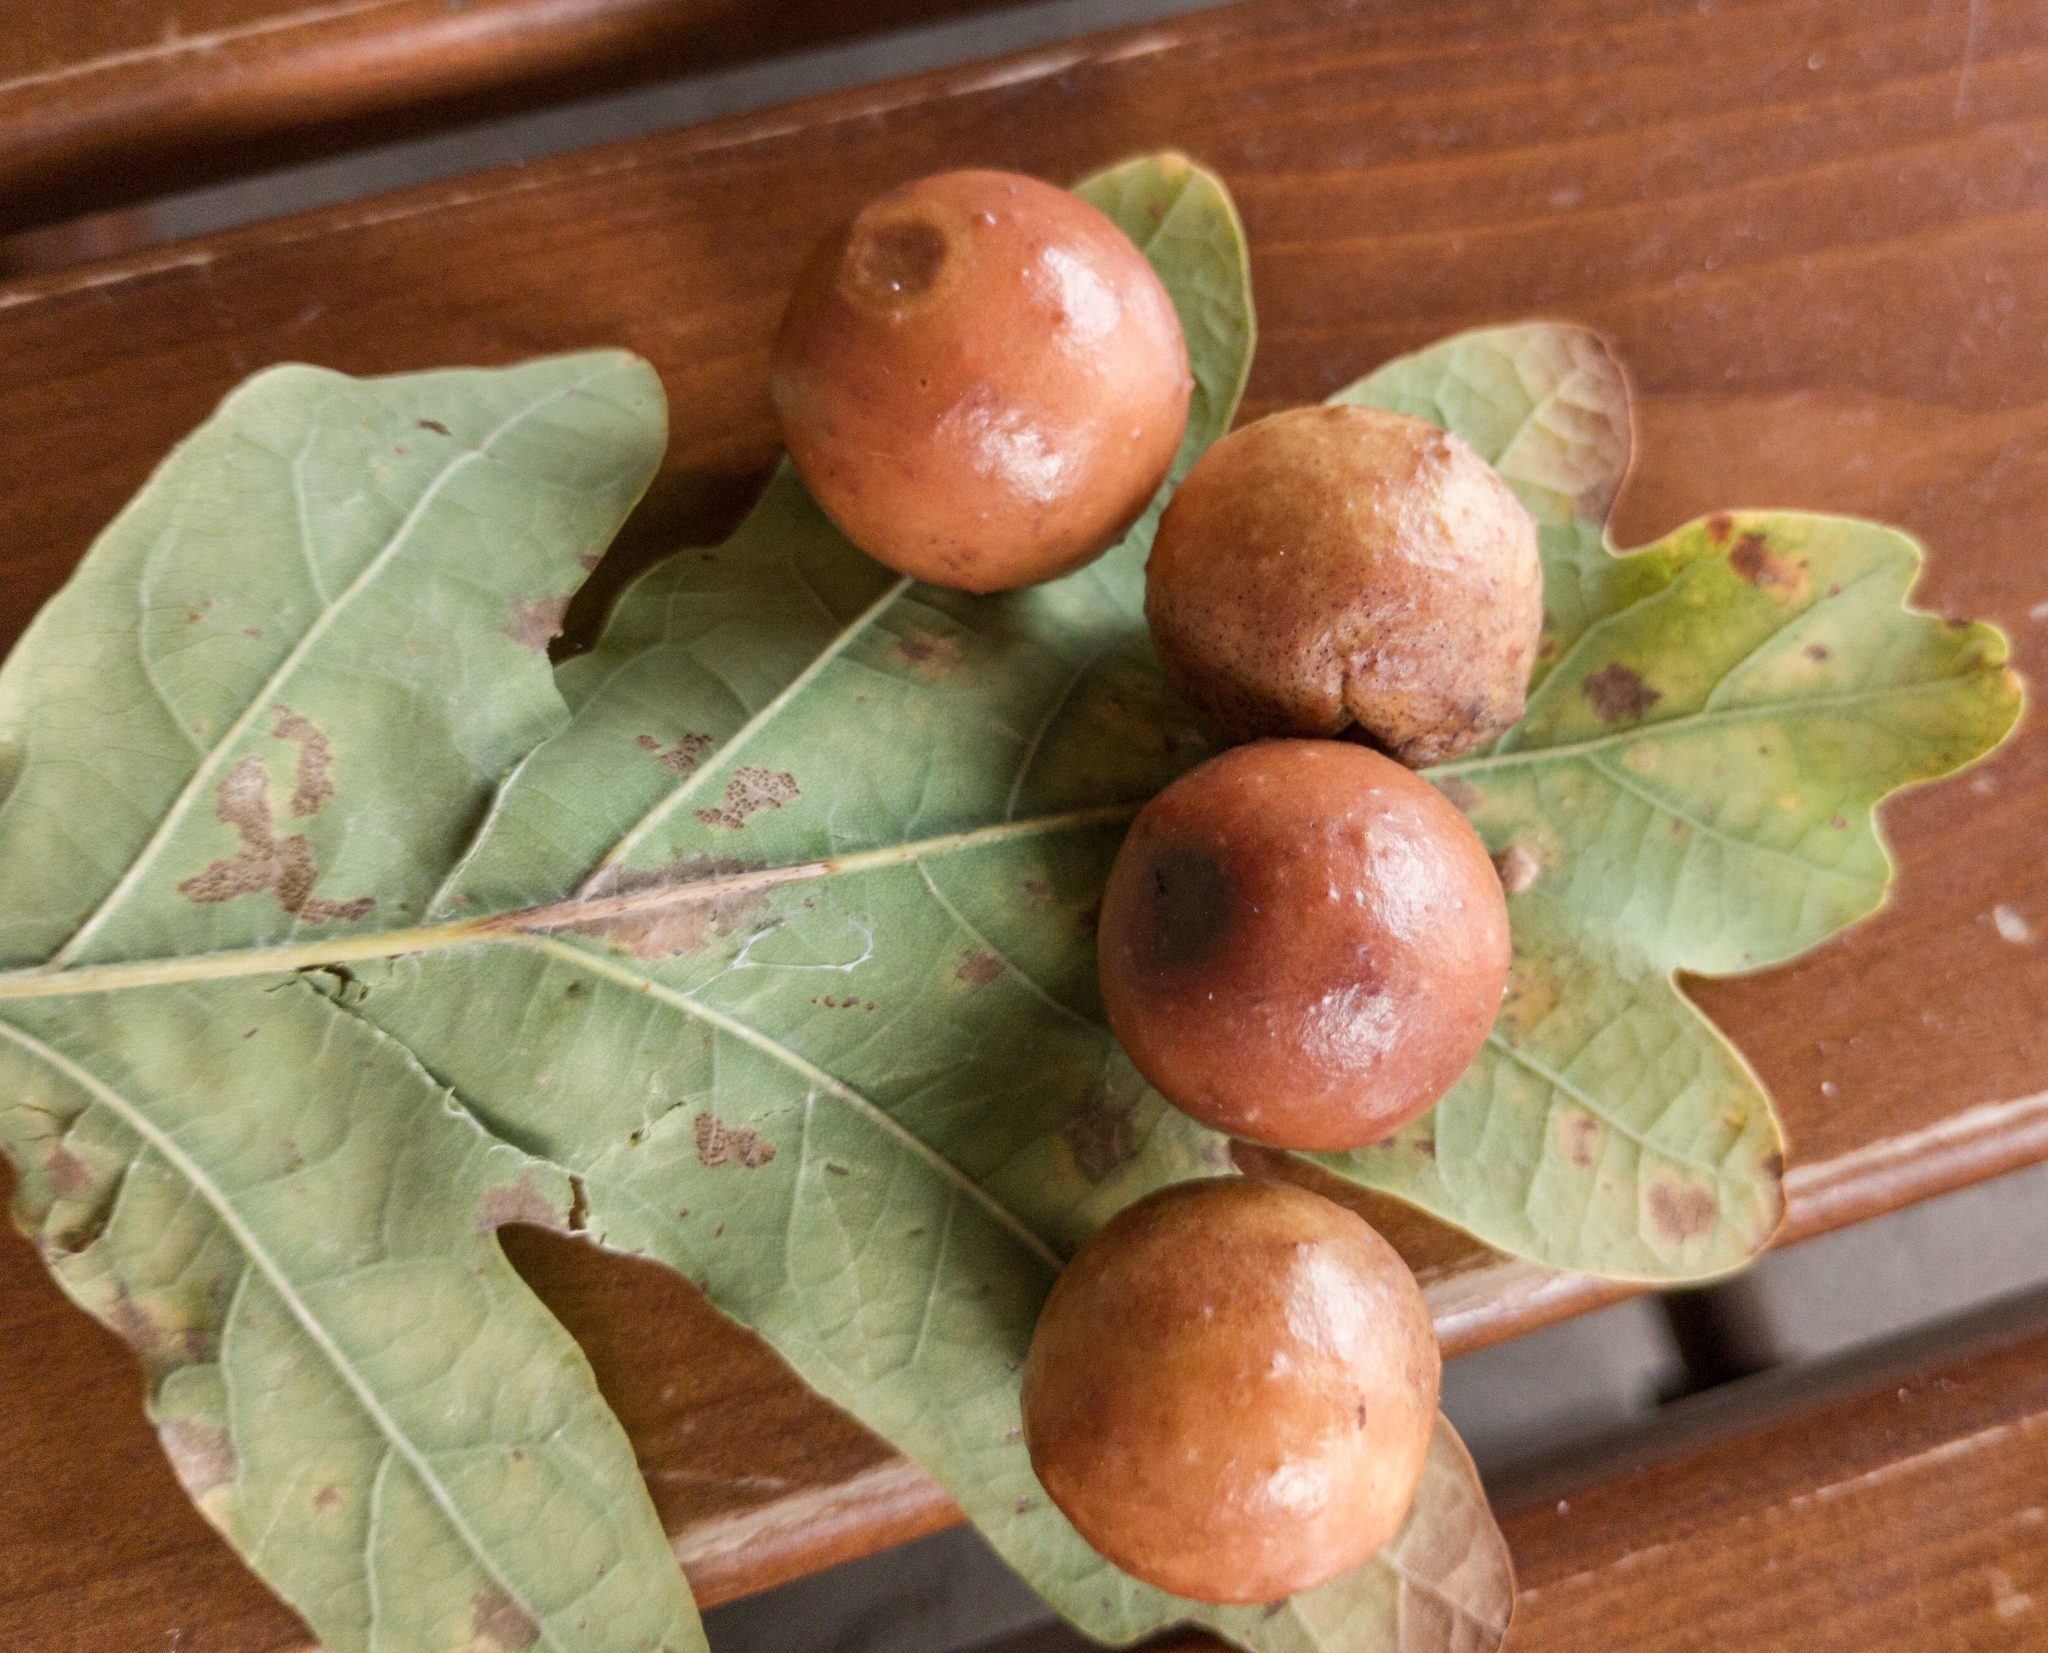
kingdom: Animalia
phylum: Arthropoda
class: Insecta
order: Hymenoptera
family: Cynipidae
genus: Cynips
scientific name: Cynips quercusfolii
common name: Cherry gall
